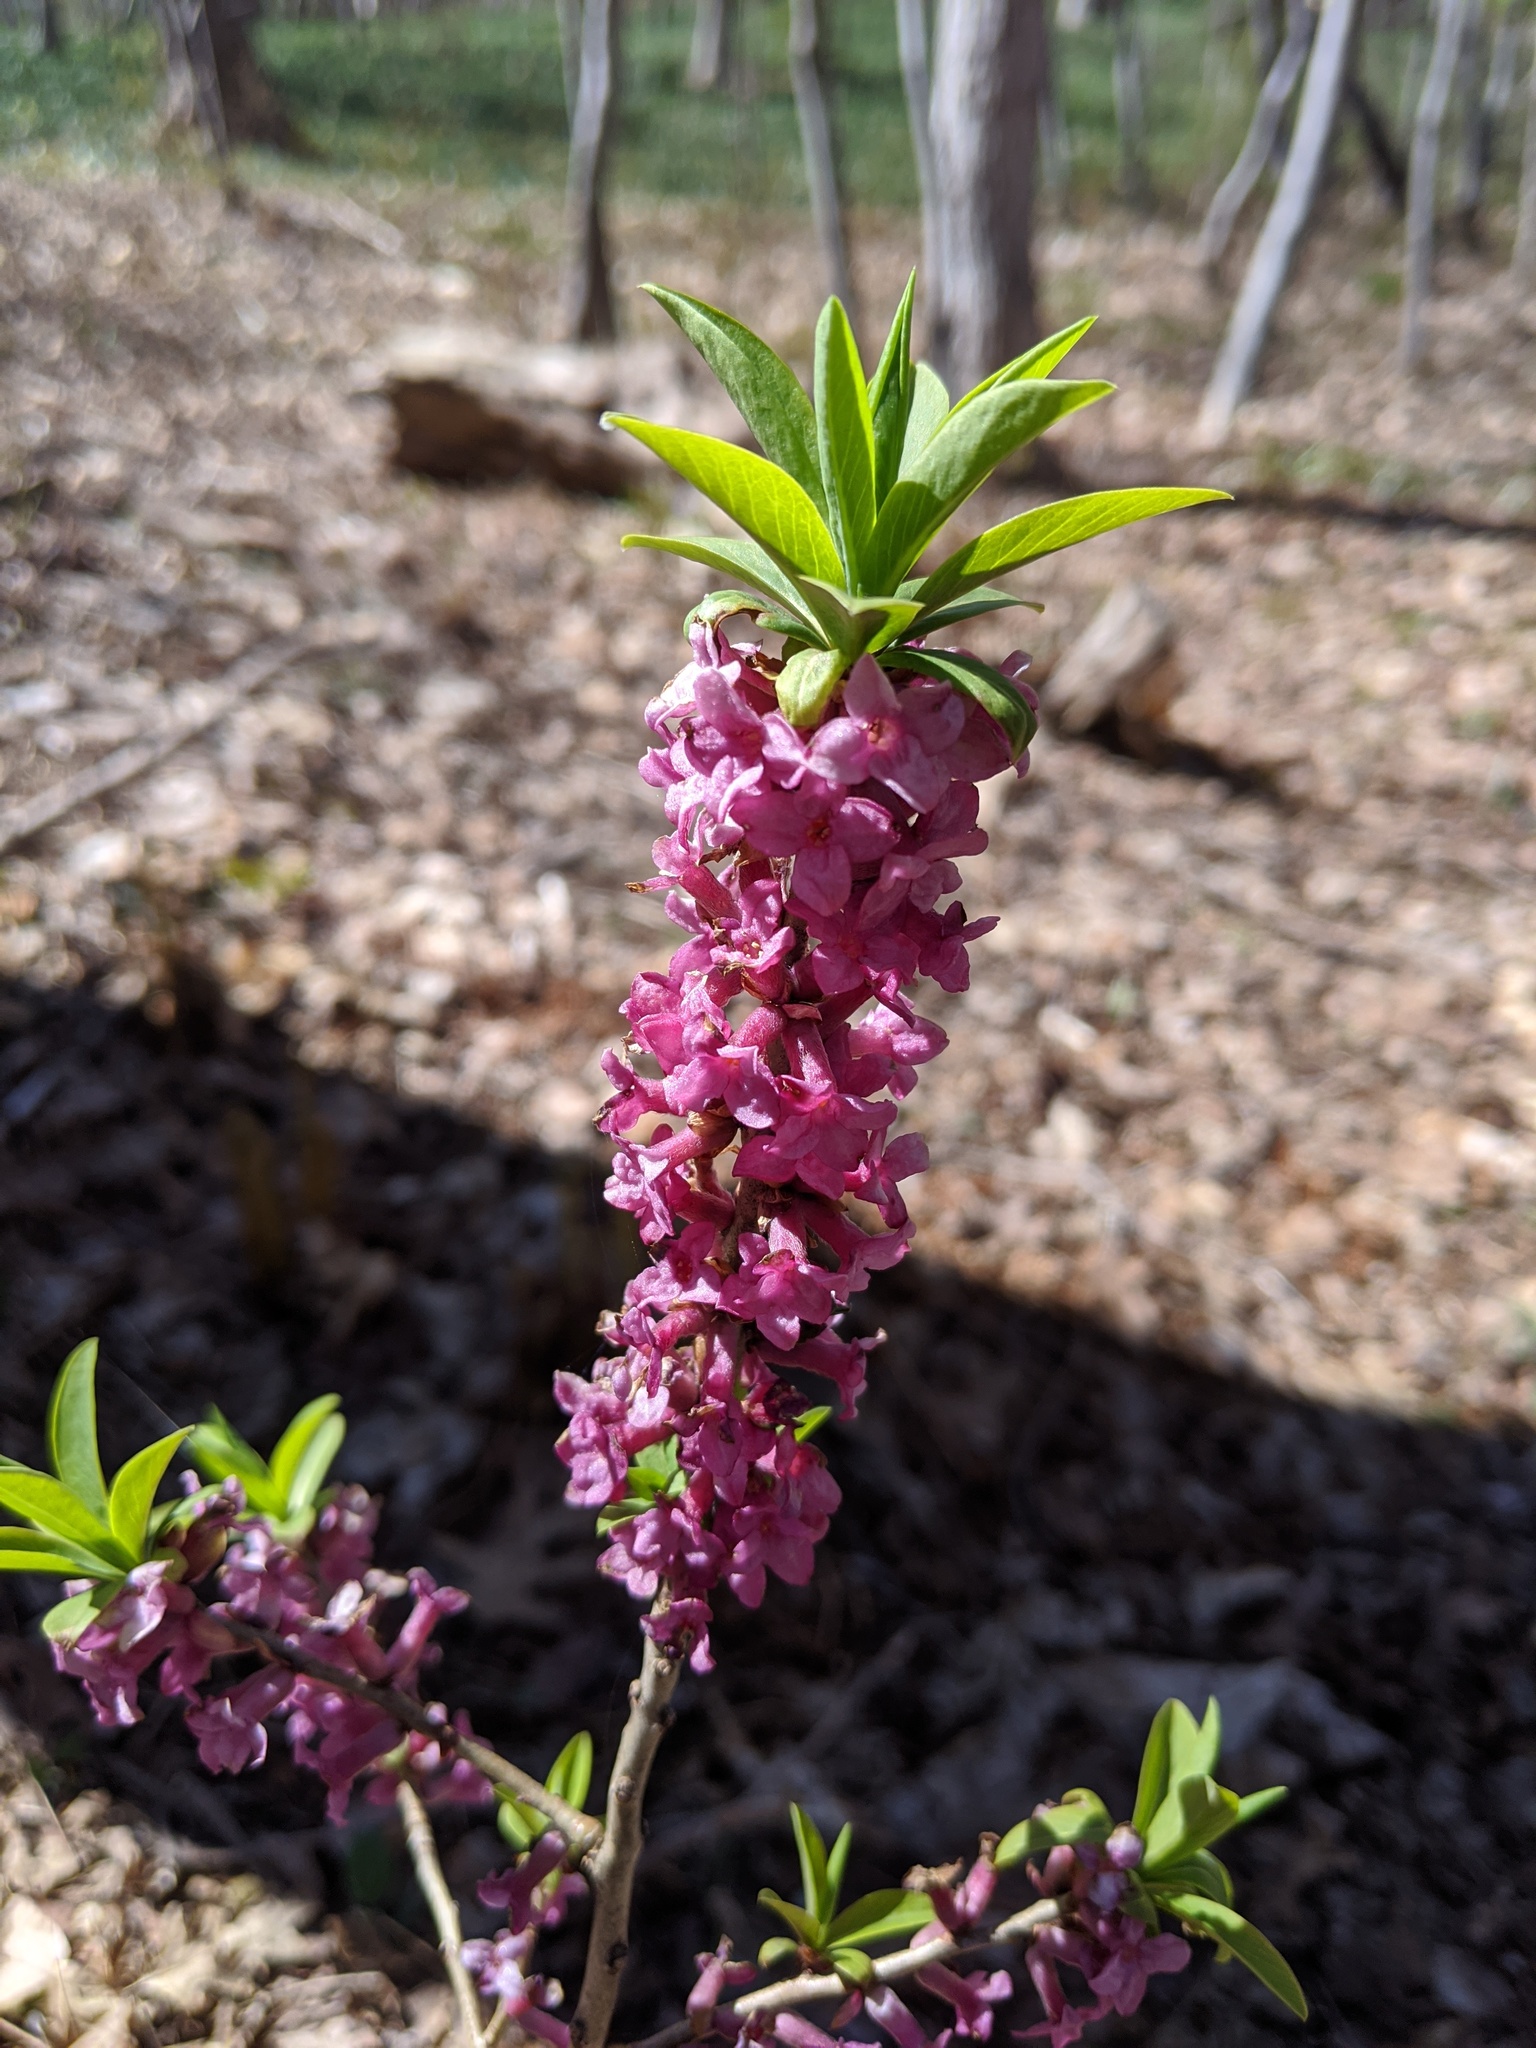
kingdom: Plantae
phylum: Tracheophyta
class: Magnoliopsida
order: Malvales
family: Thymelaeaceae
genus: Daphne
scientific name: Daphne mezereum
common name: Mezereon
